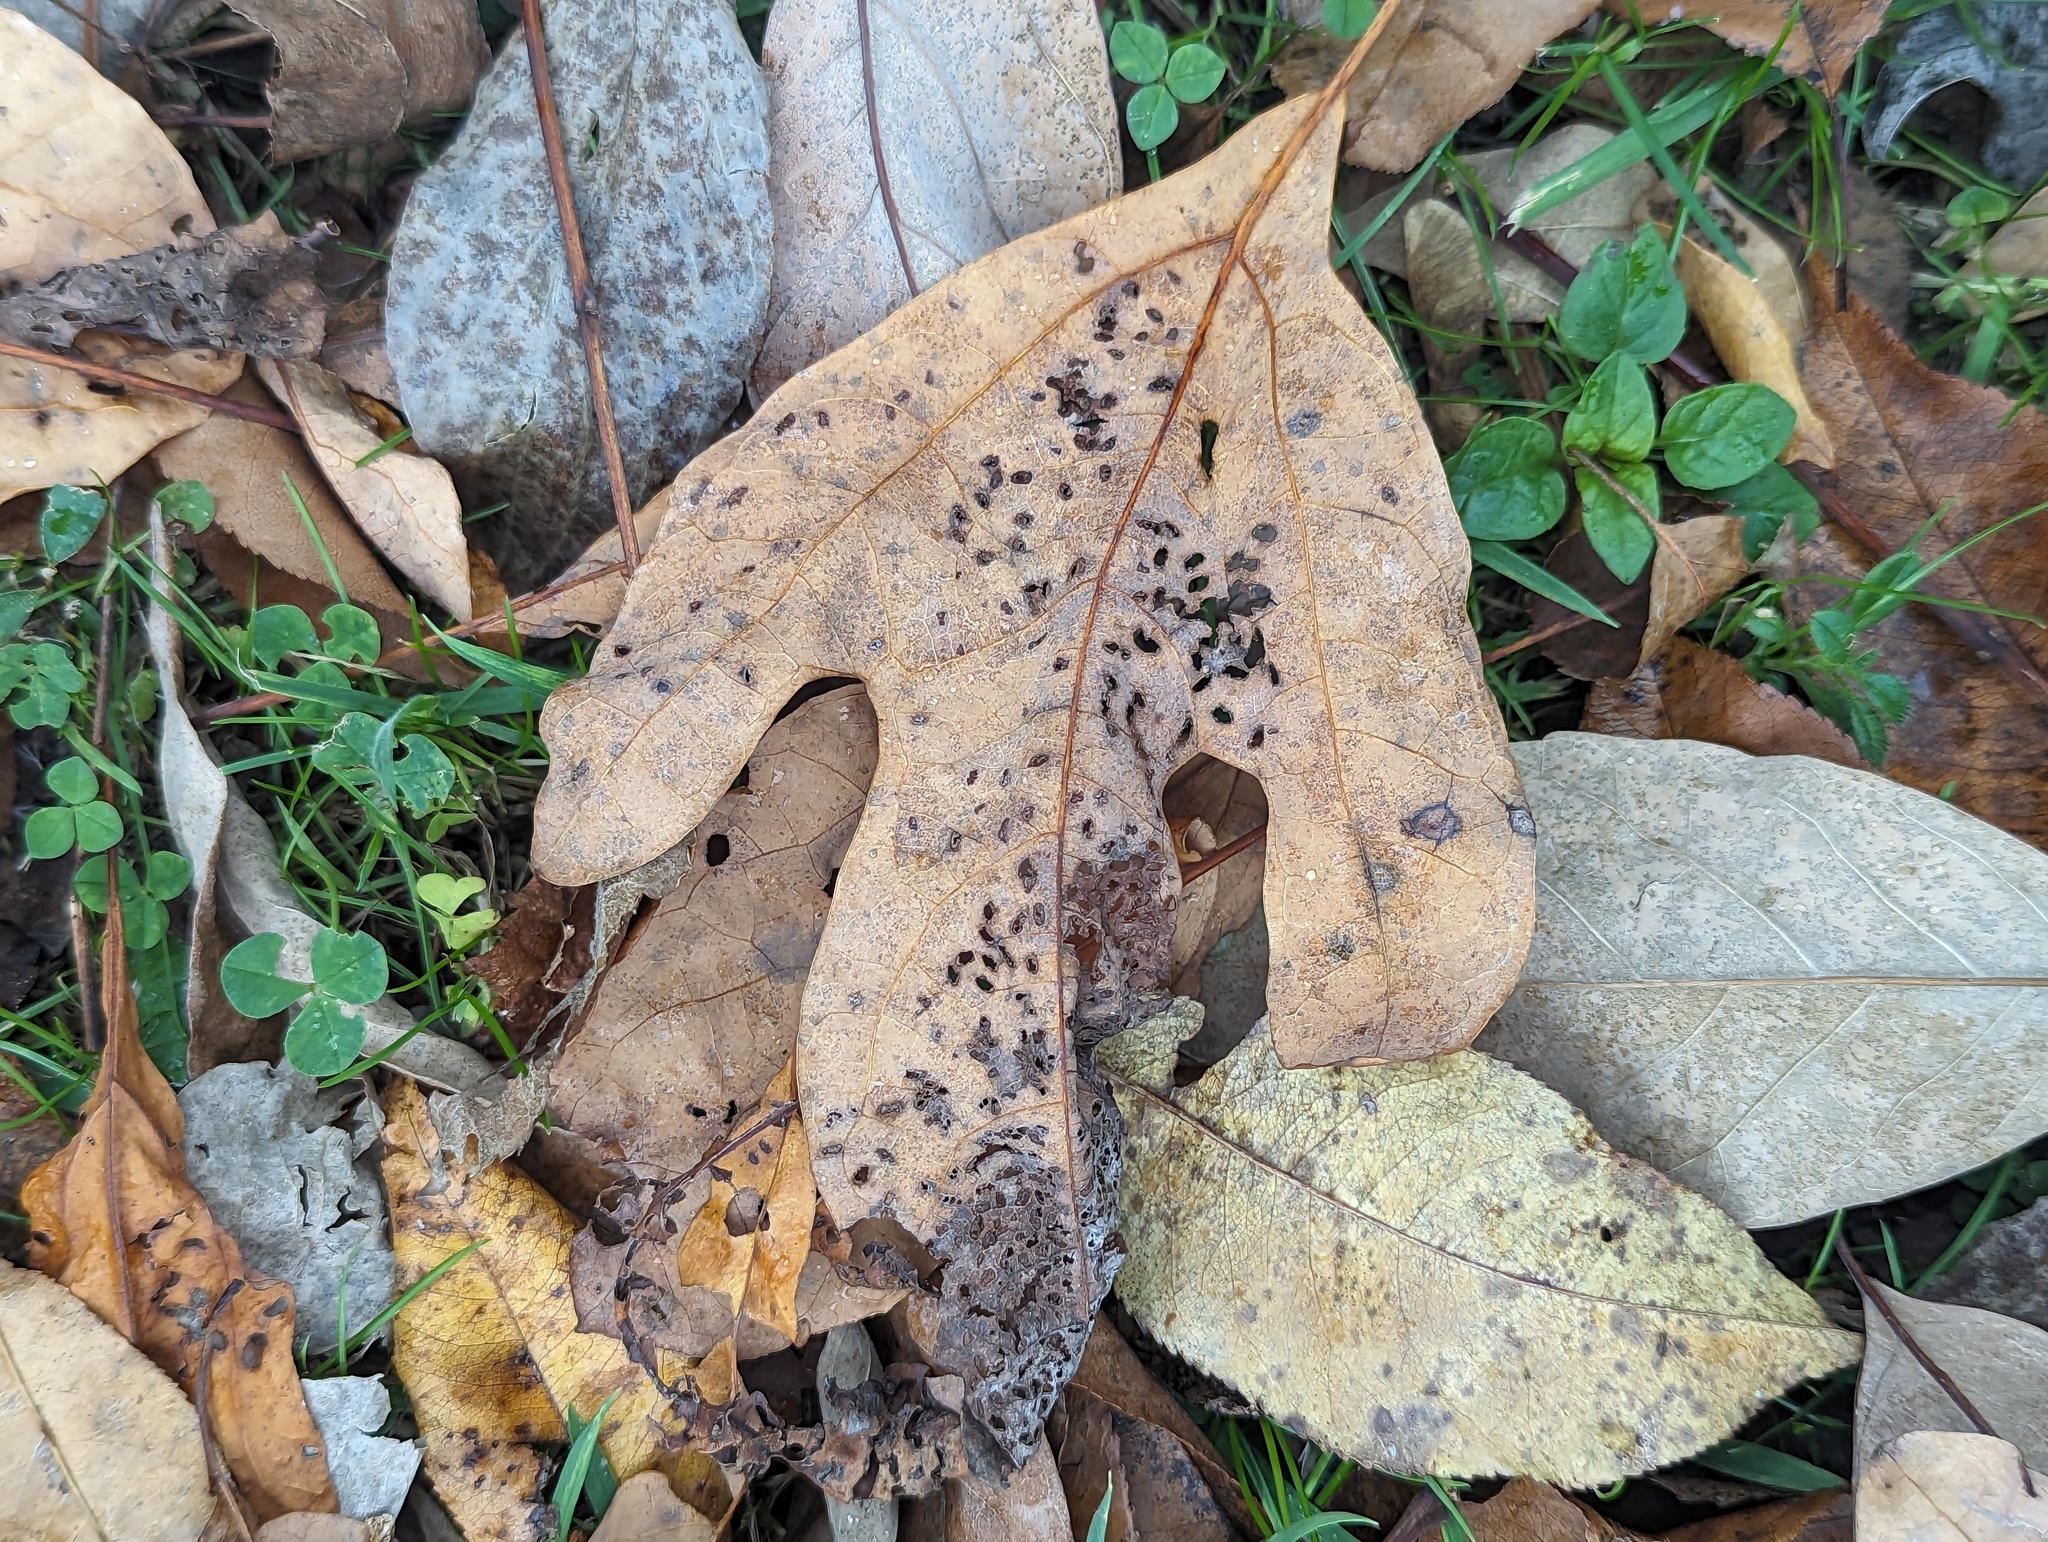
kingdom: Plantae
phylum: Tracheophyta
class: Magnoliopsida
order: Laurales
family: Lauraceae
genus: Sassafras
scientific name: Sassafras albidum
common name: Sassafras
